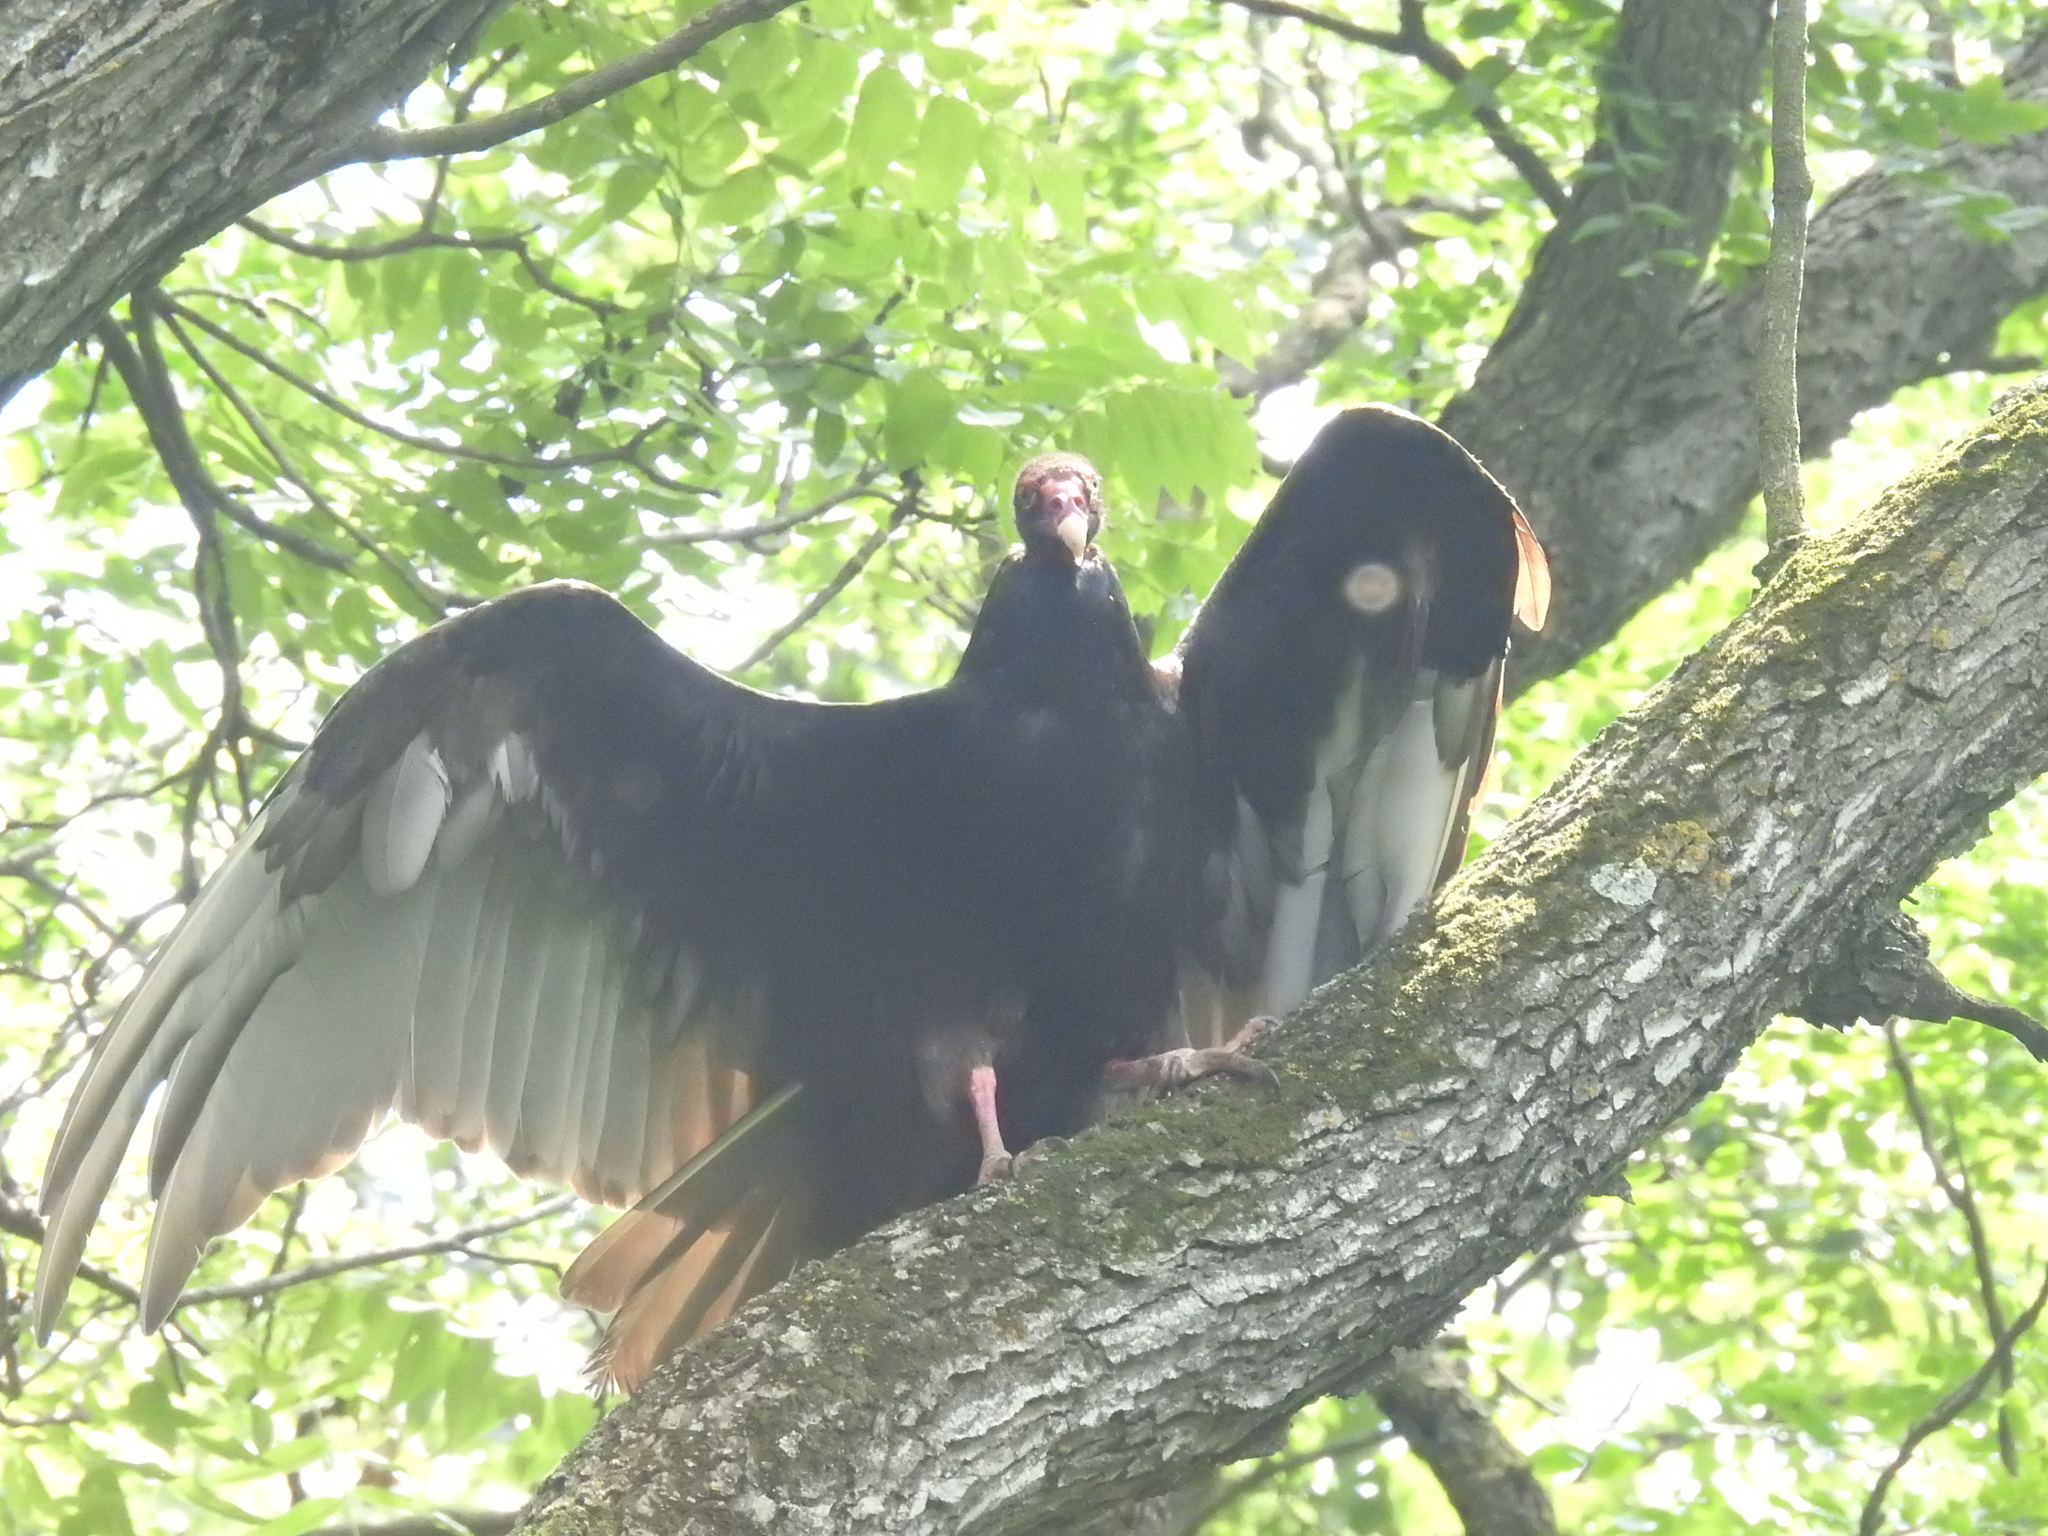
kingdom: Animalia
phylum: Chordata
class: Aves
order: Accipitriformes
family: Cathartidae
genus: Cathartes
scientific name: Cathartes aura
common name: Turkey vulture
